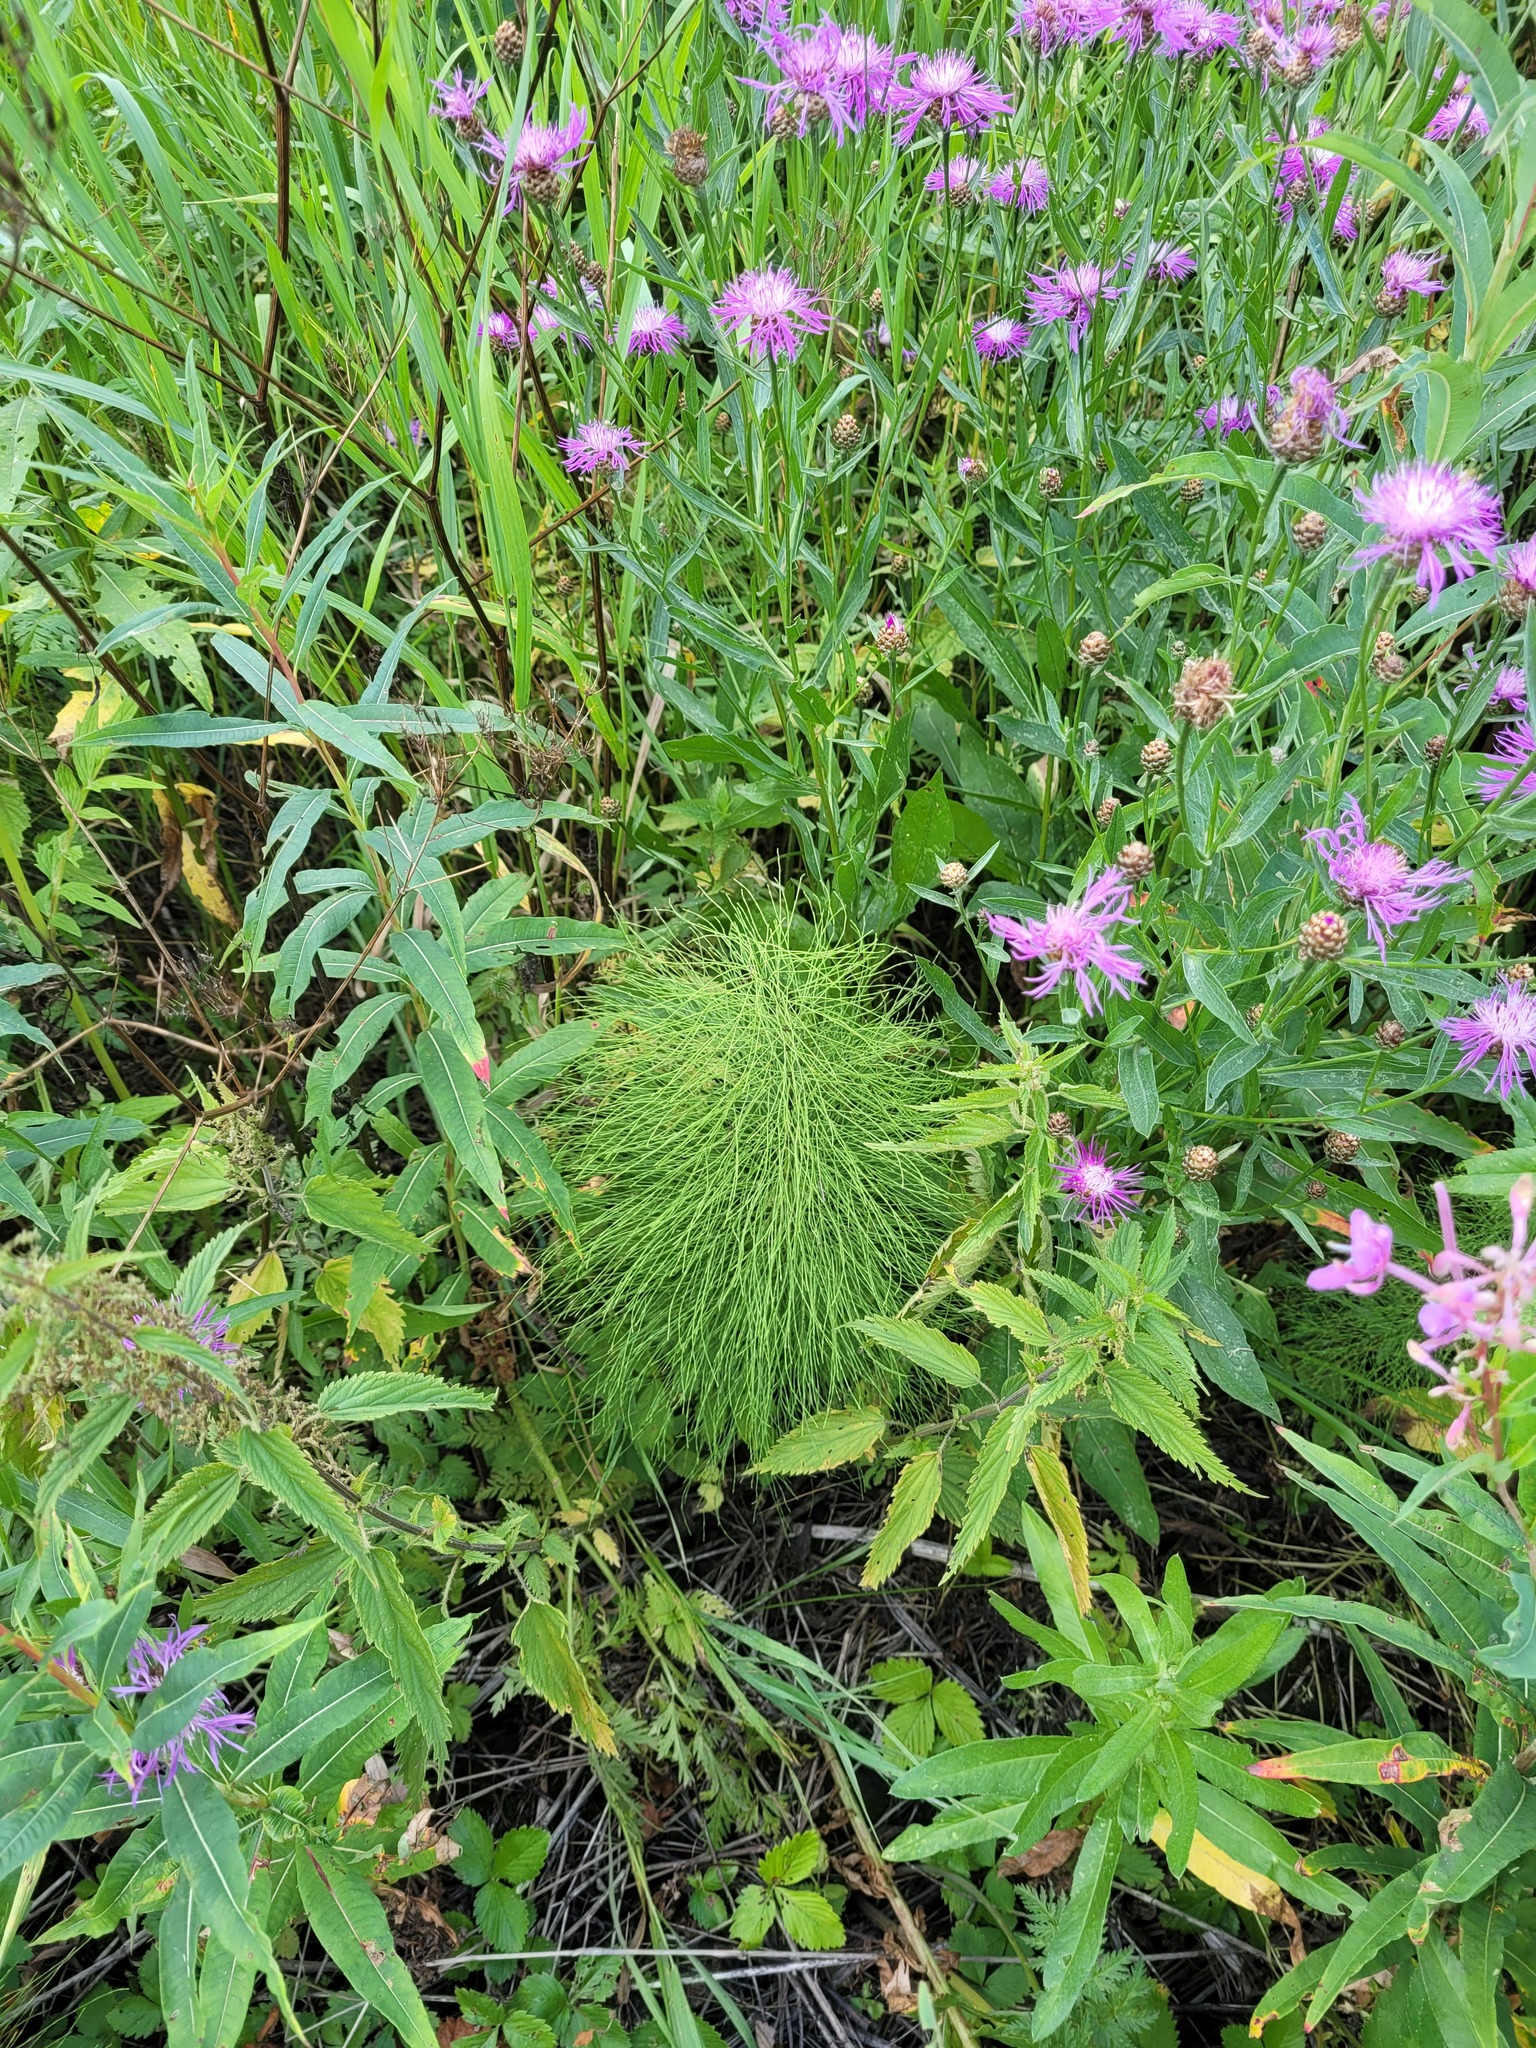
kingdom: Plantae
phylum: Tracheophyta
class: Polypodiopsida
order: Equisetales
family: Equisetaceae
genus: Equisetum
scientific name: Equisetum sylvaticum
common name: Wood horsetail
